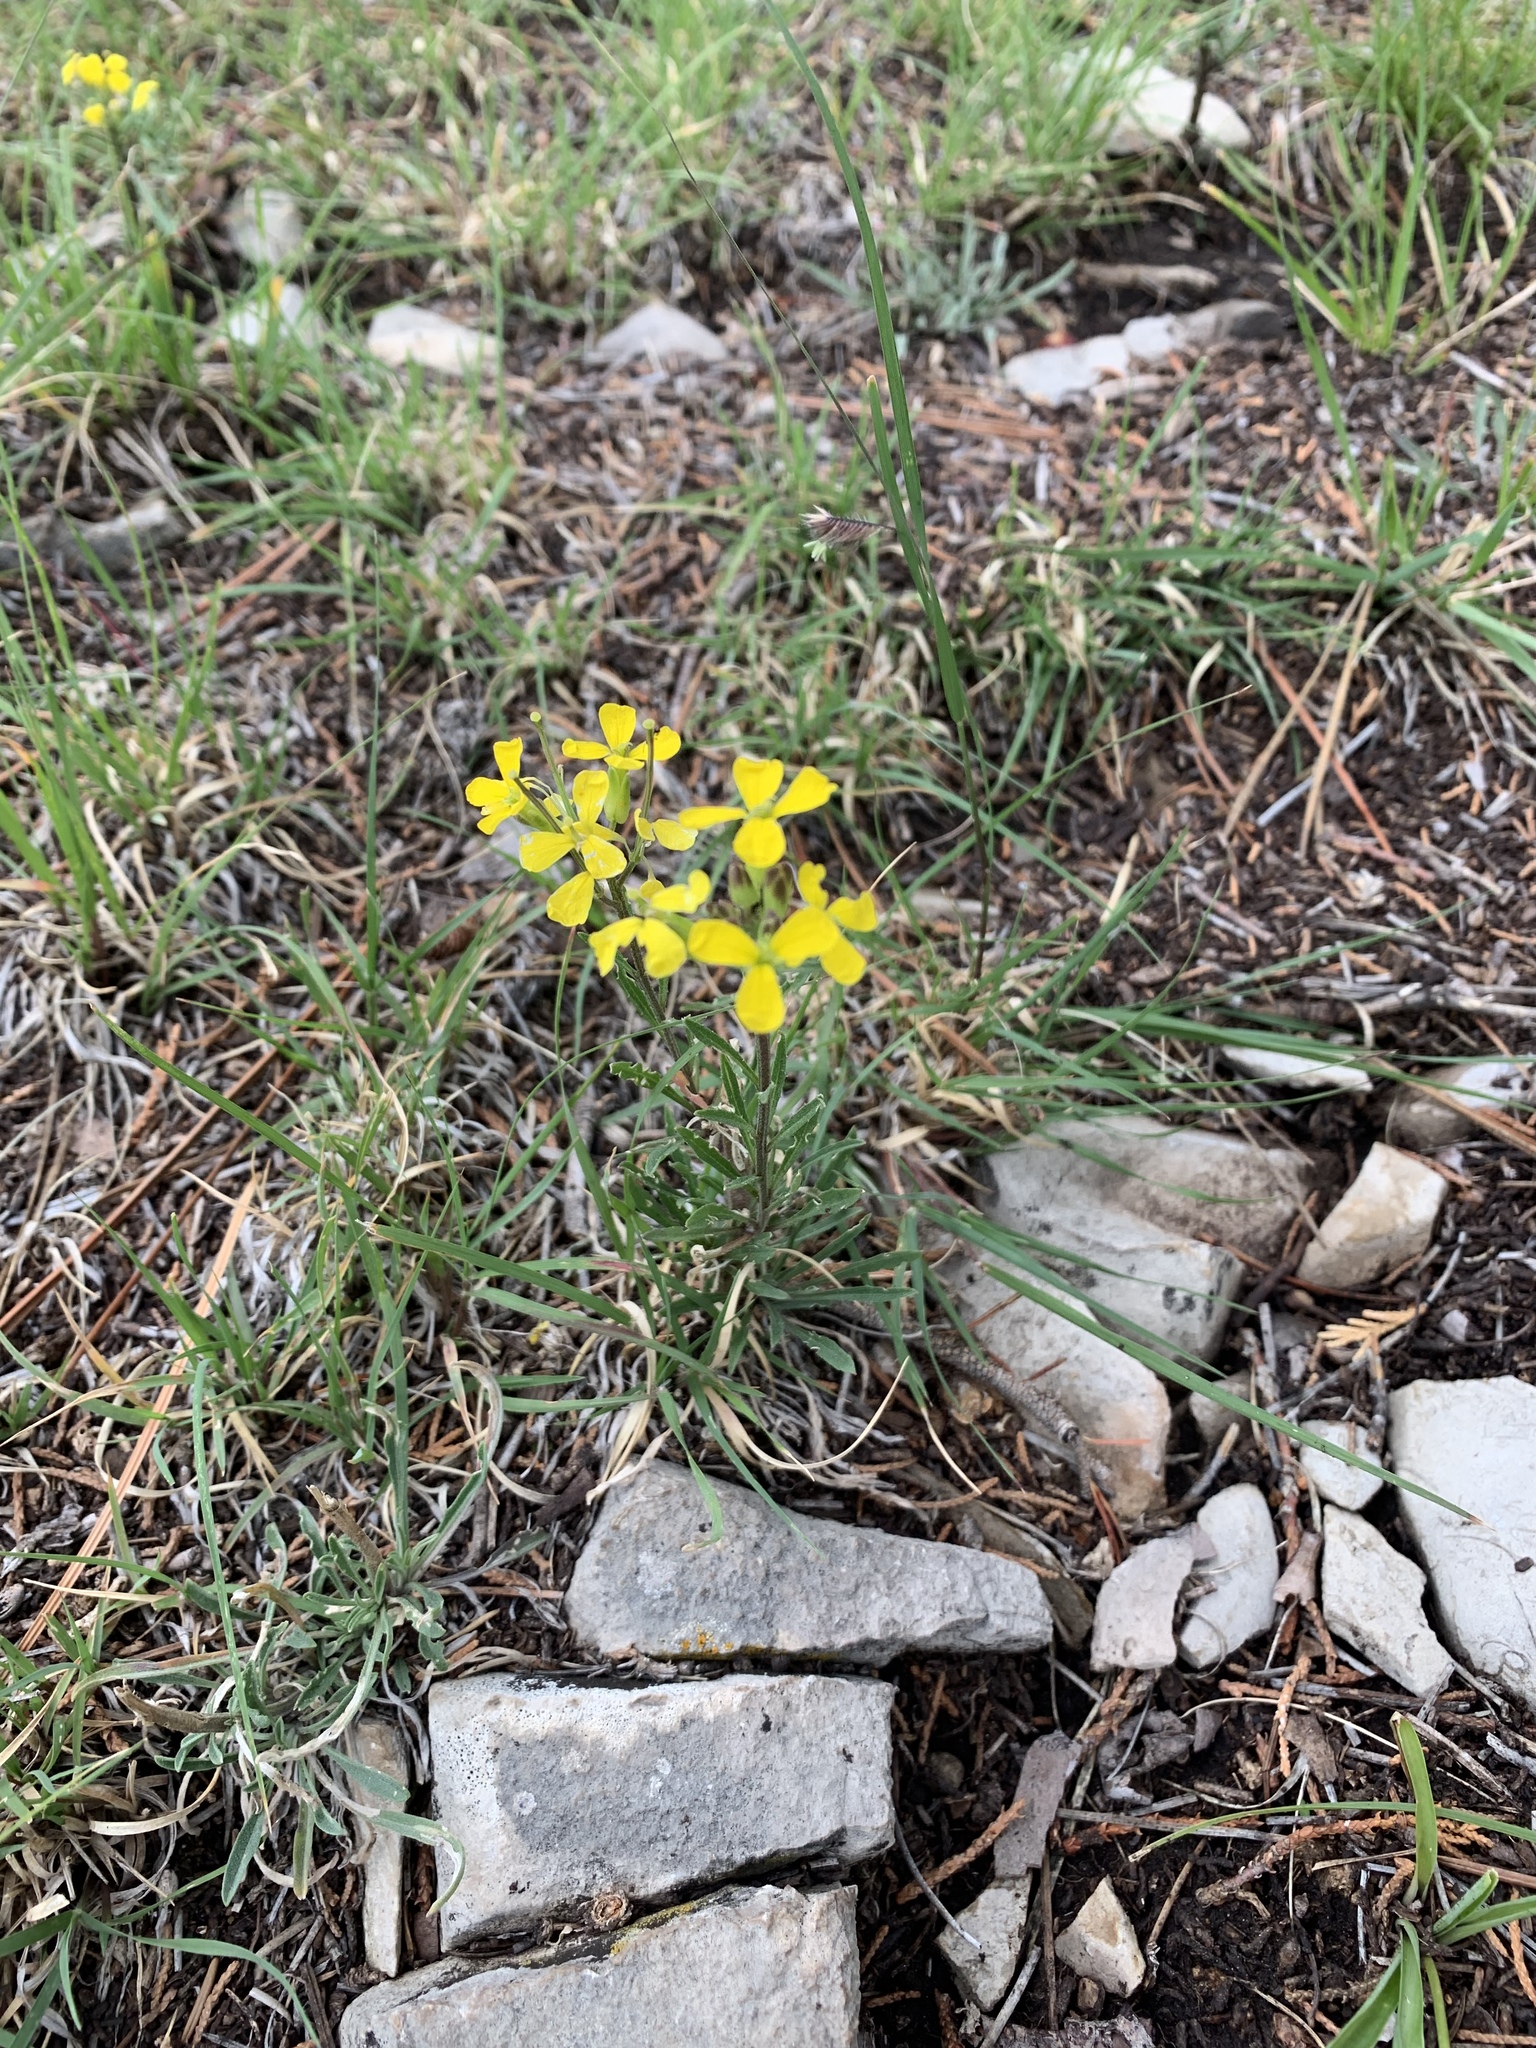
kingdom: Plantae
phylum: Tracheophyta
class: Magnoliopsida
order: Brassicales
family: Brassicaceae
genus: Erysimum
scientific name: Erysimum capitatum
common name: Western wallflower
